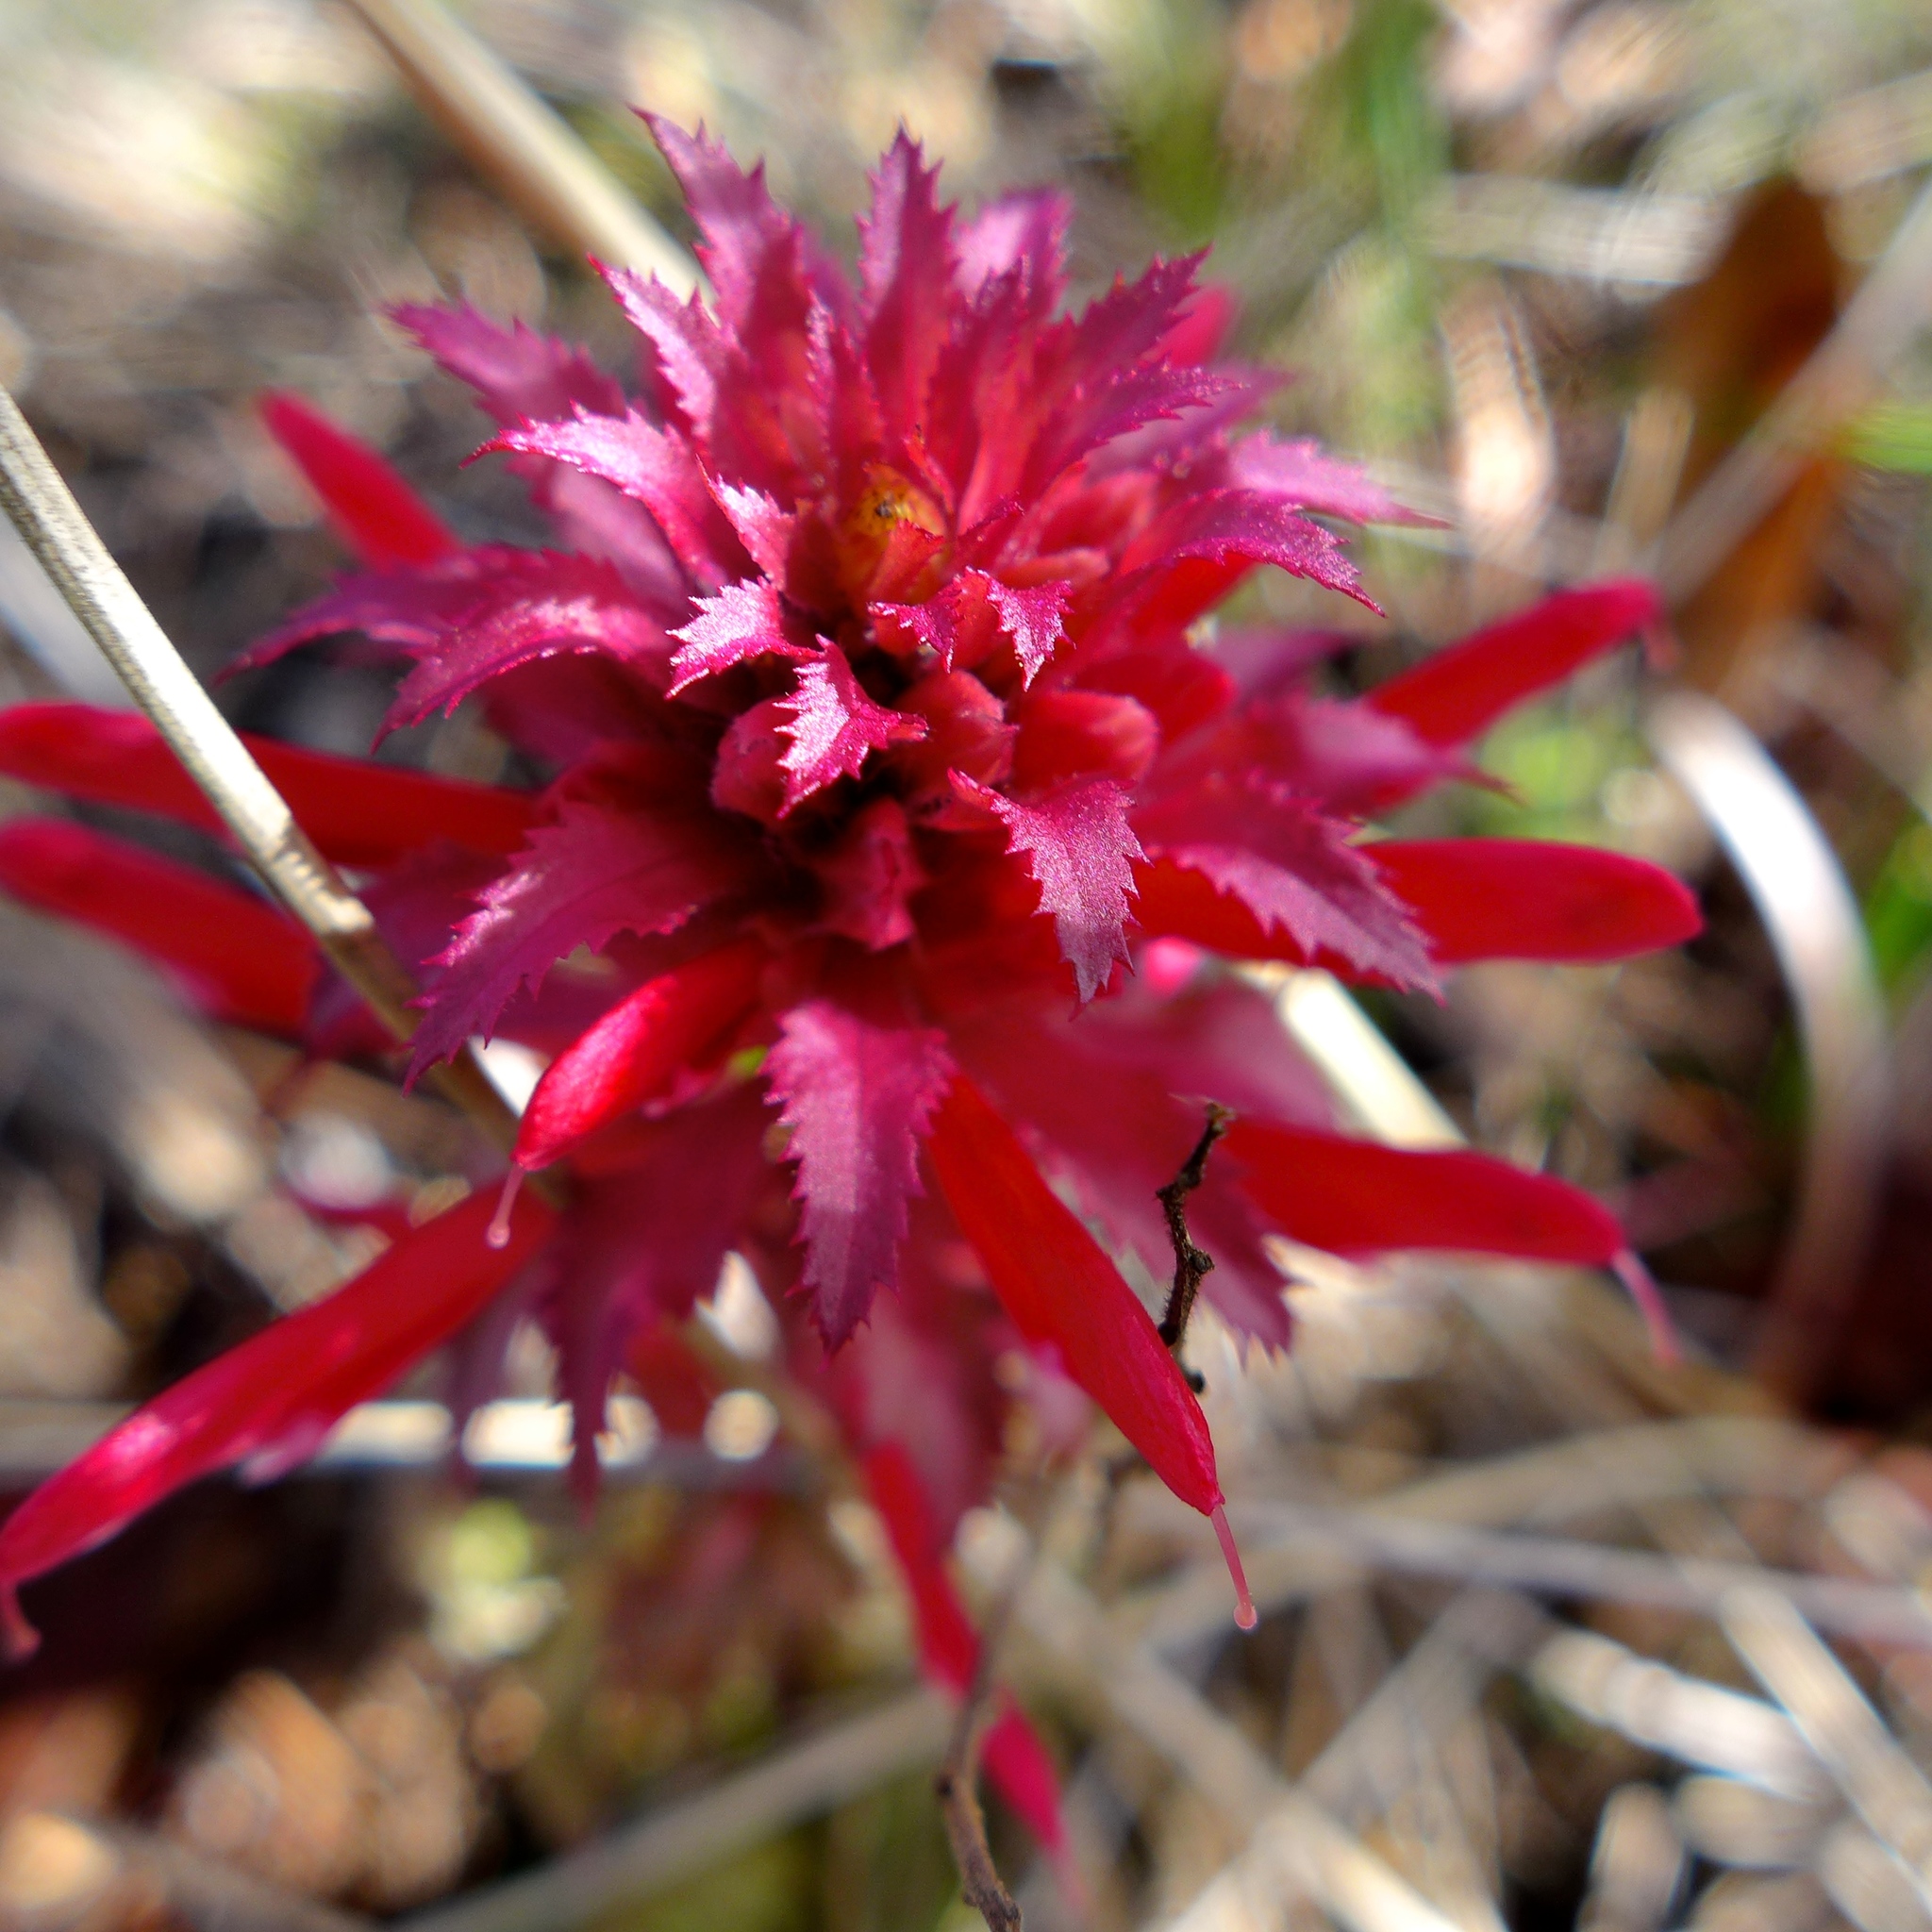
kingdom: Plantae
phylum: Tracheophyta
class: Magnoliopsida
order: Lamiales
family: Orobanchaceae
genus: Pedicularis
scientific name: Pedicularis densiflora
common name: Indian warrior
